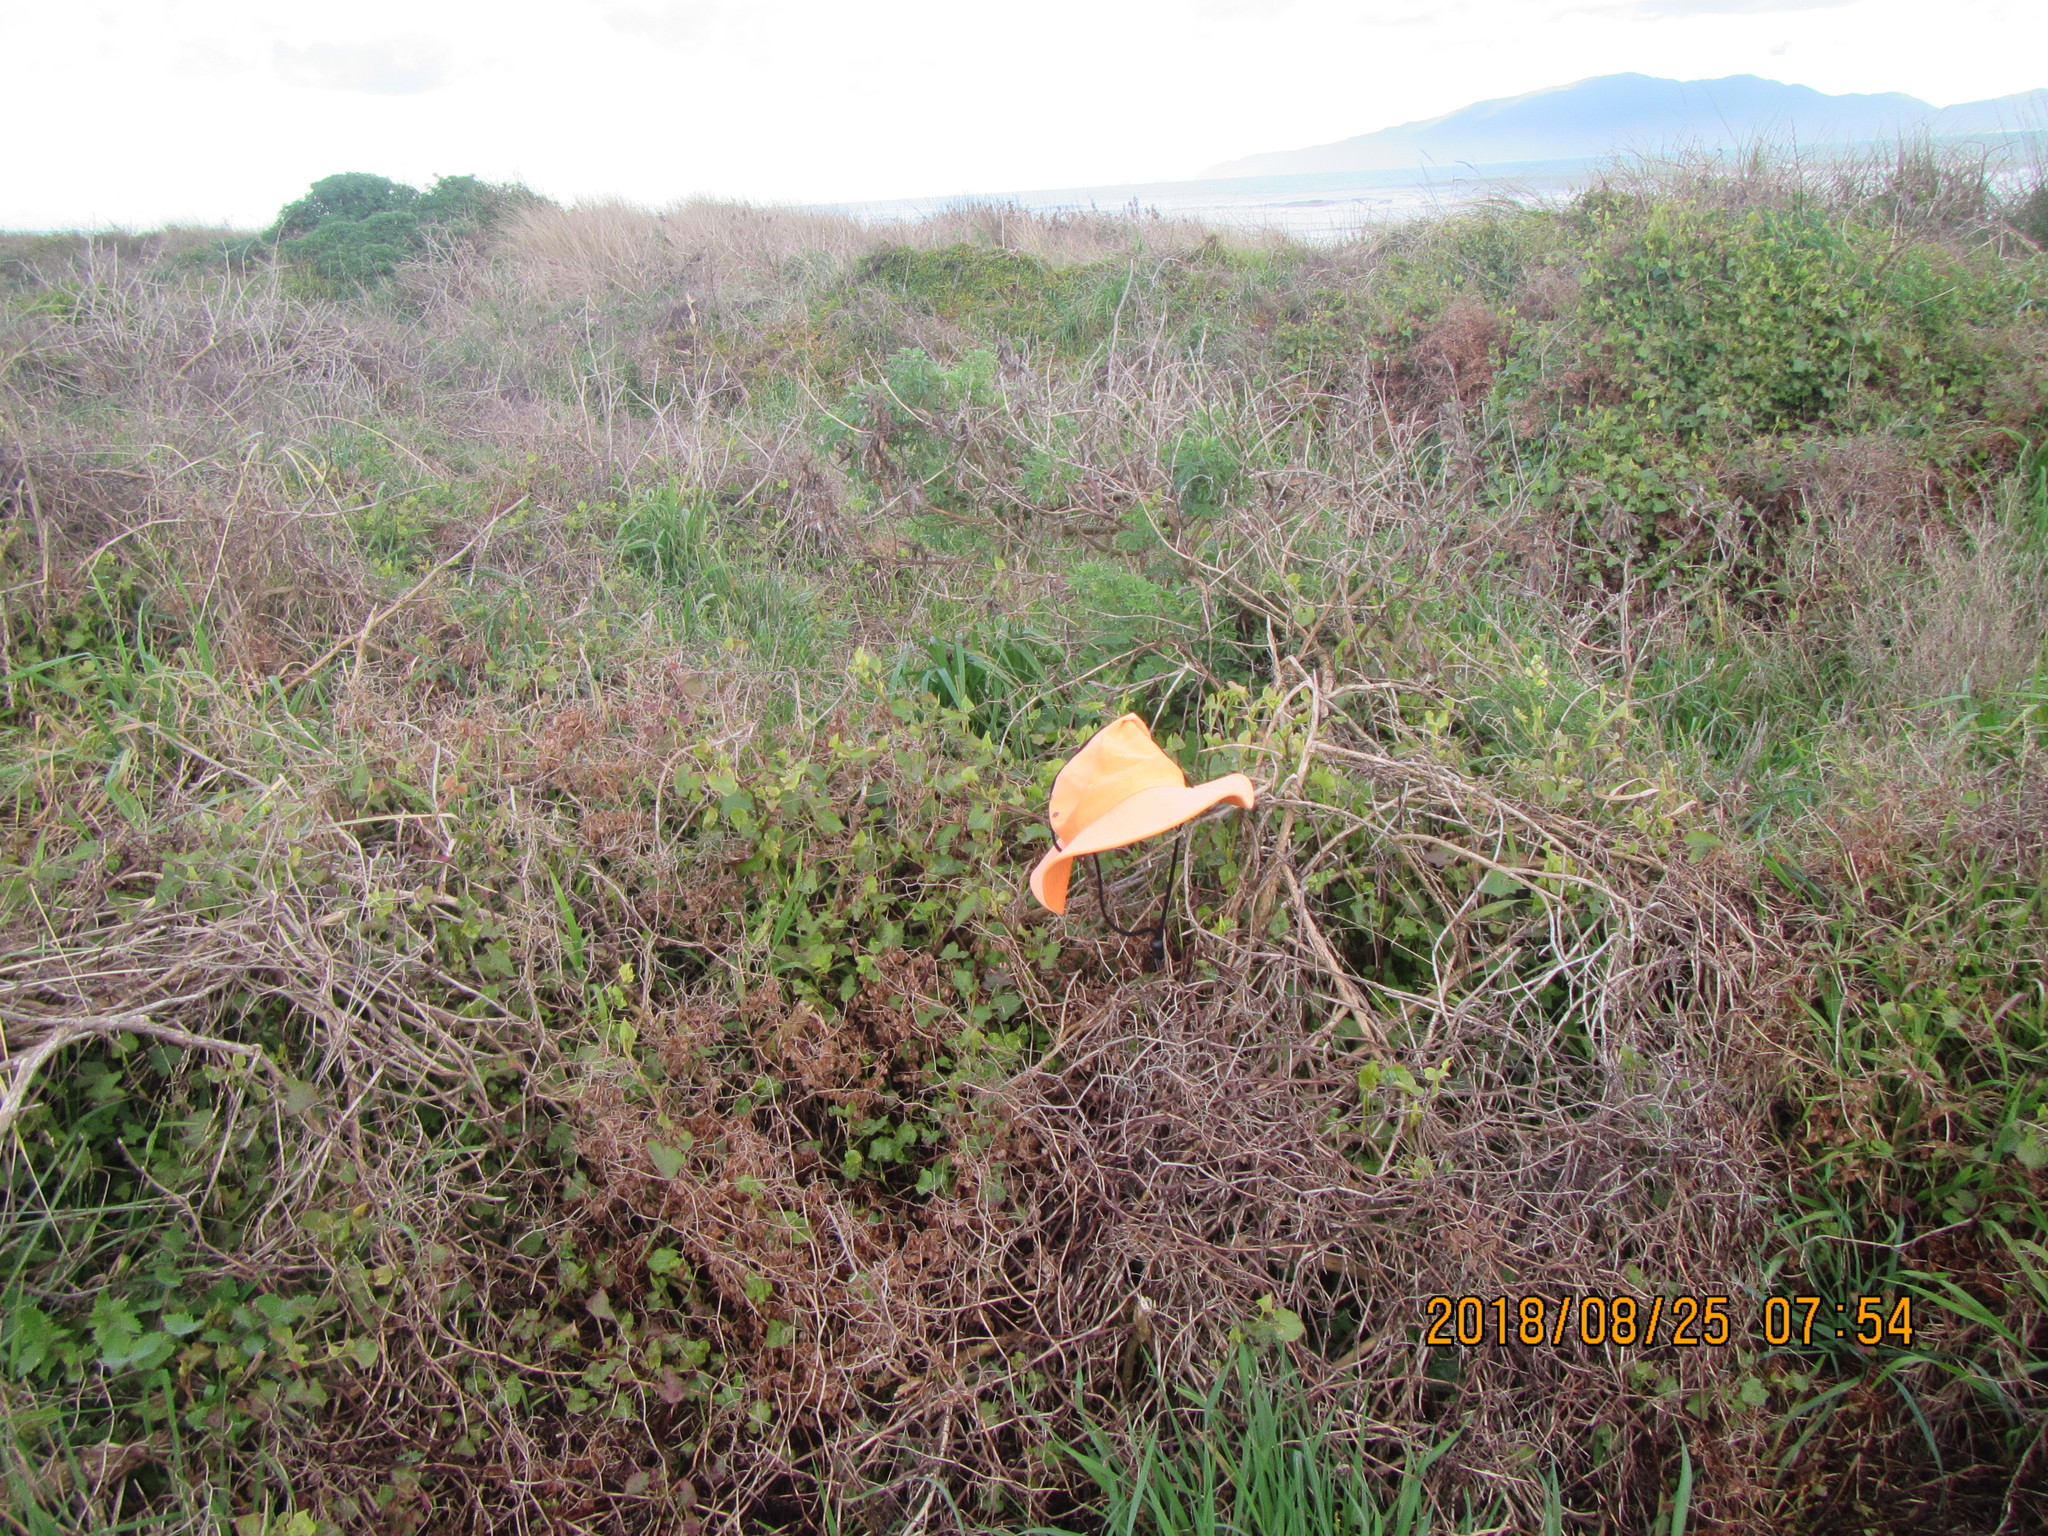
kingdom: Plantae
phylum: Tracheophyta
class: Magnoliopsida
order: Caryophyllales
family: Polygonaceae
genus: Rumex
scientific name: Rumex sagittatus
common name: Climbing dock
